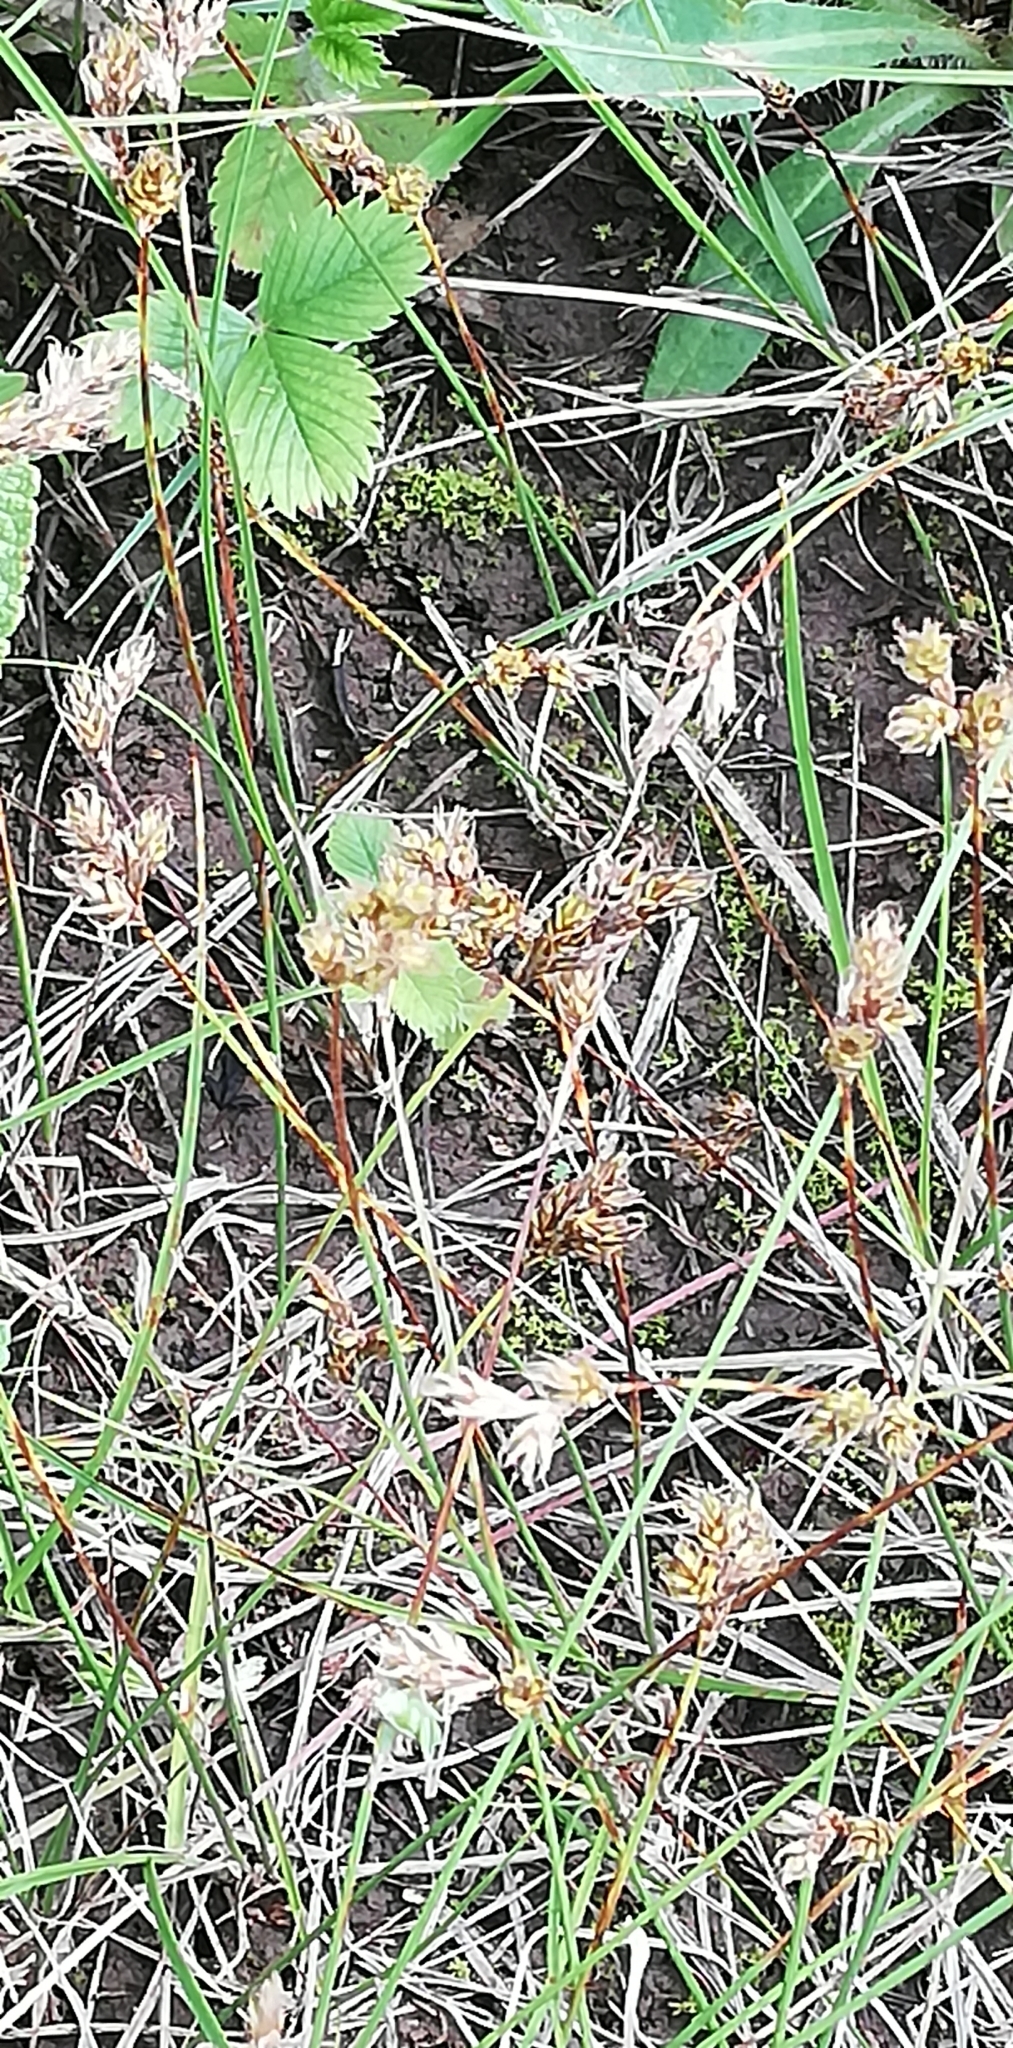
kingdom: Plantae
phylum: Tracheophyta
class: Liliopsida
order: Poales
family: Cyperaceae
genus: Carex
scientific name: Carex praecox
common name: Early sedge
